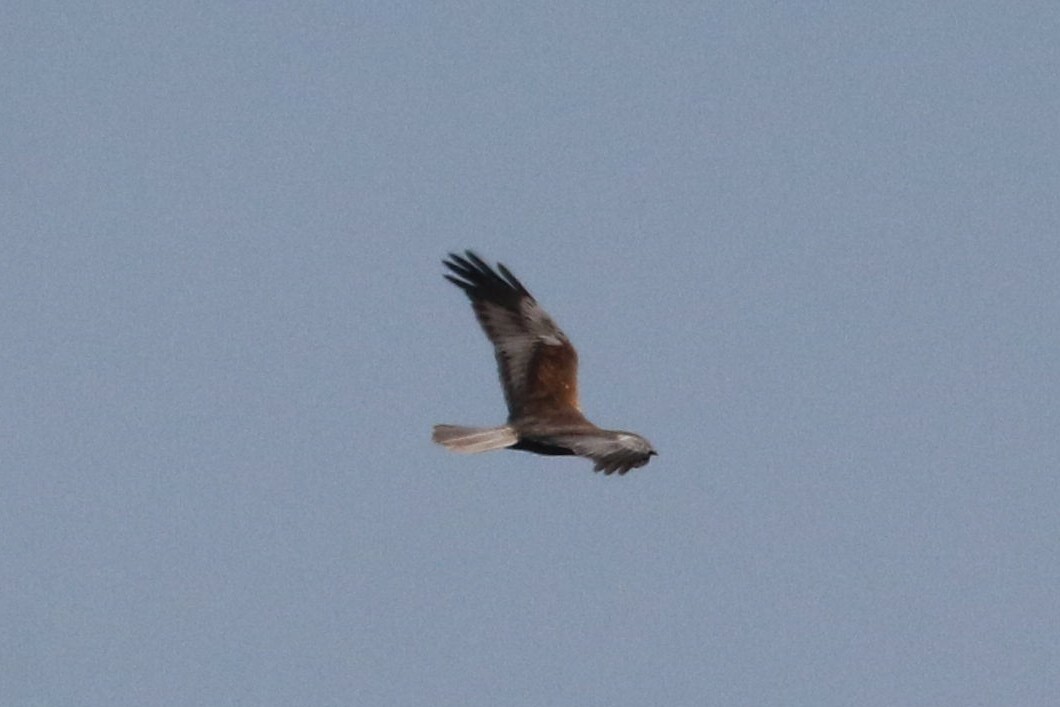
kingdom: Animalia
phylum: Chordata
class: Aves
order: Accipitriformes
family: Accipitridae
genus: Circus
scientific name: Circus aeruginosus
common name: Western marsh harrier
